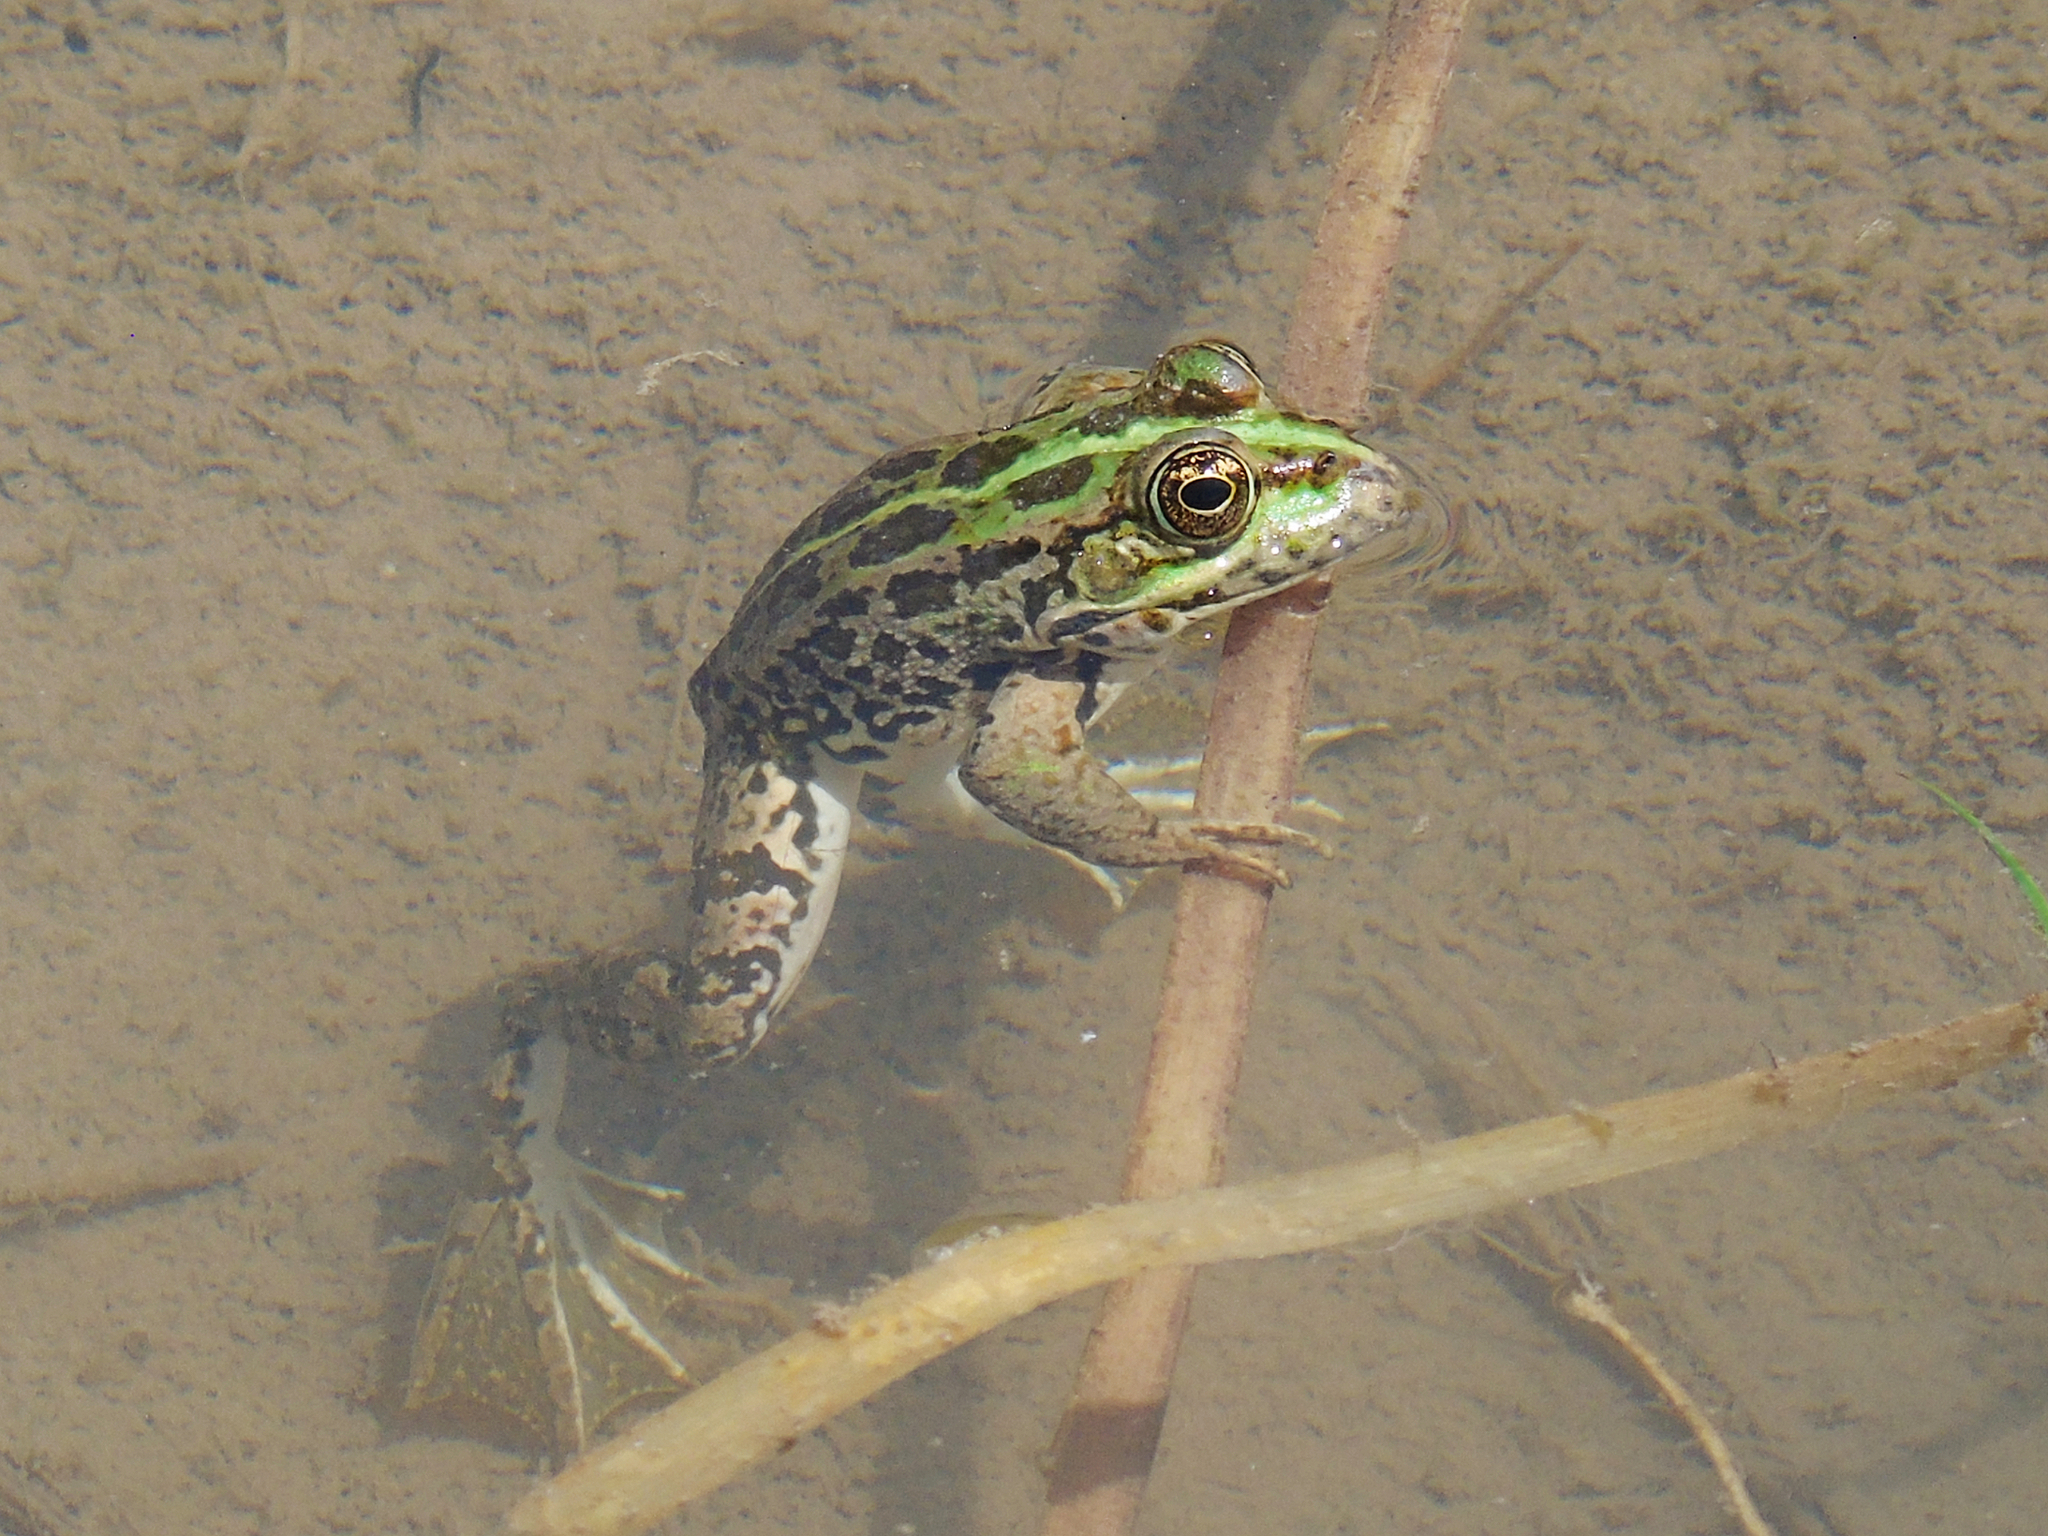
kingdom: Animalia
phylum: Chordata
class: Amphibia
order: Anura
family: Ranidae
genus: Pelophylax
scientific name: Pelophylax ridibundus
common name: Marsh frog
